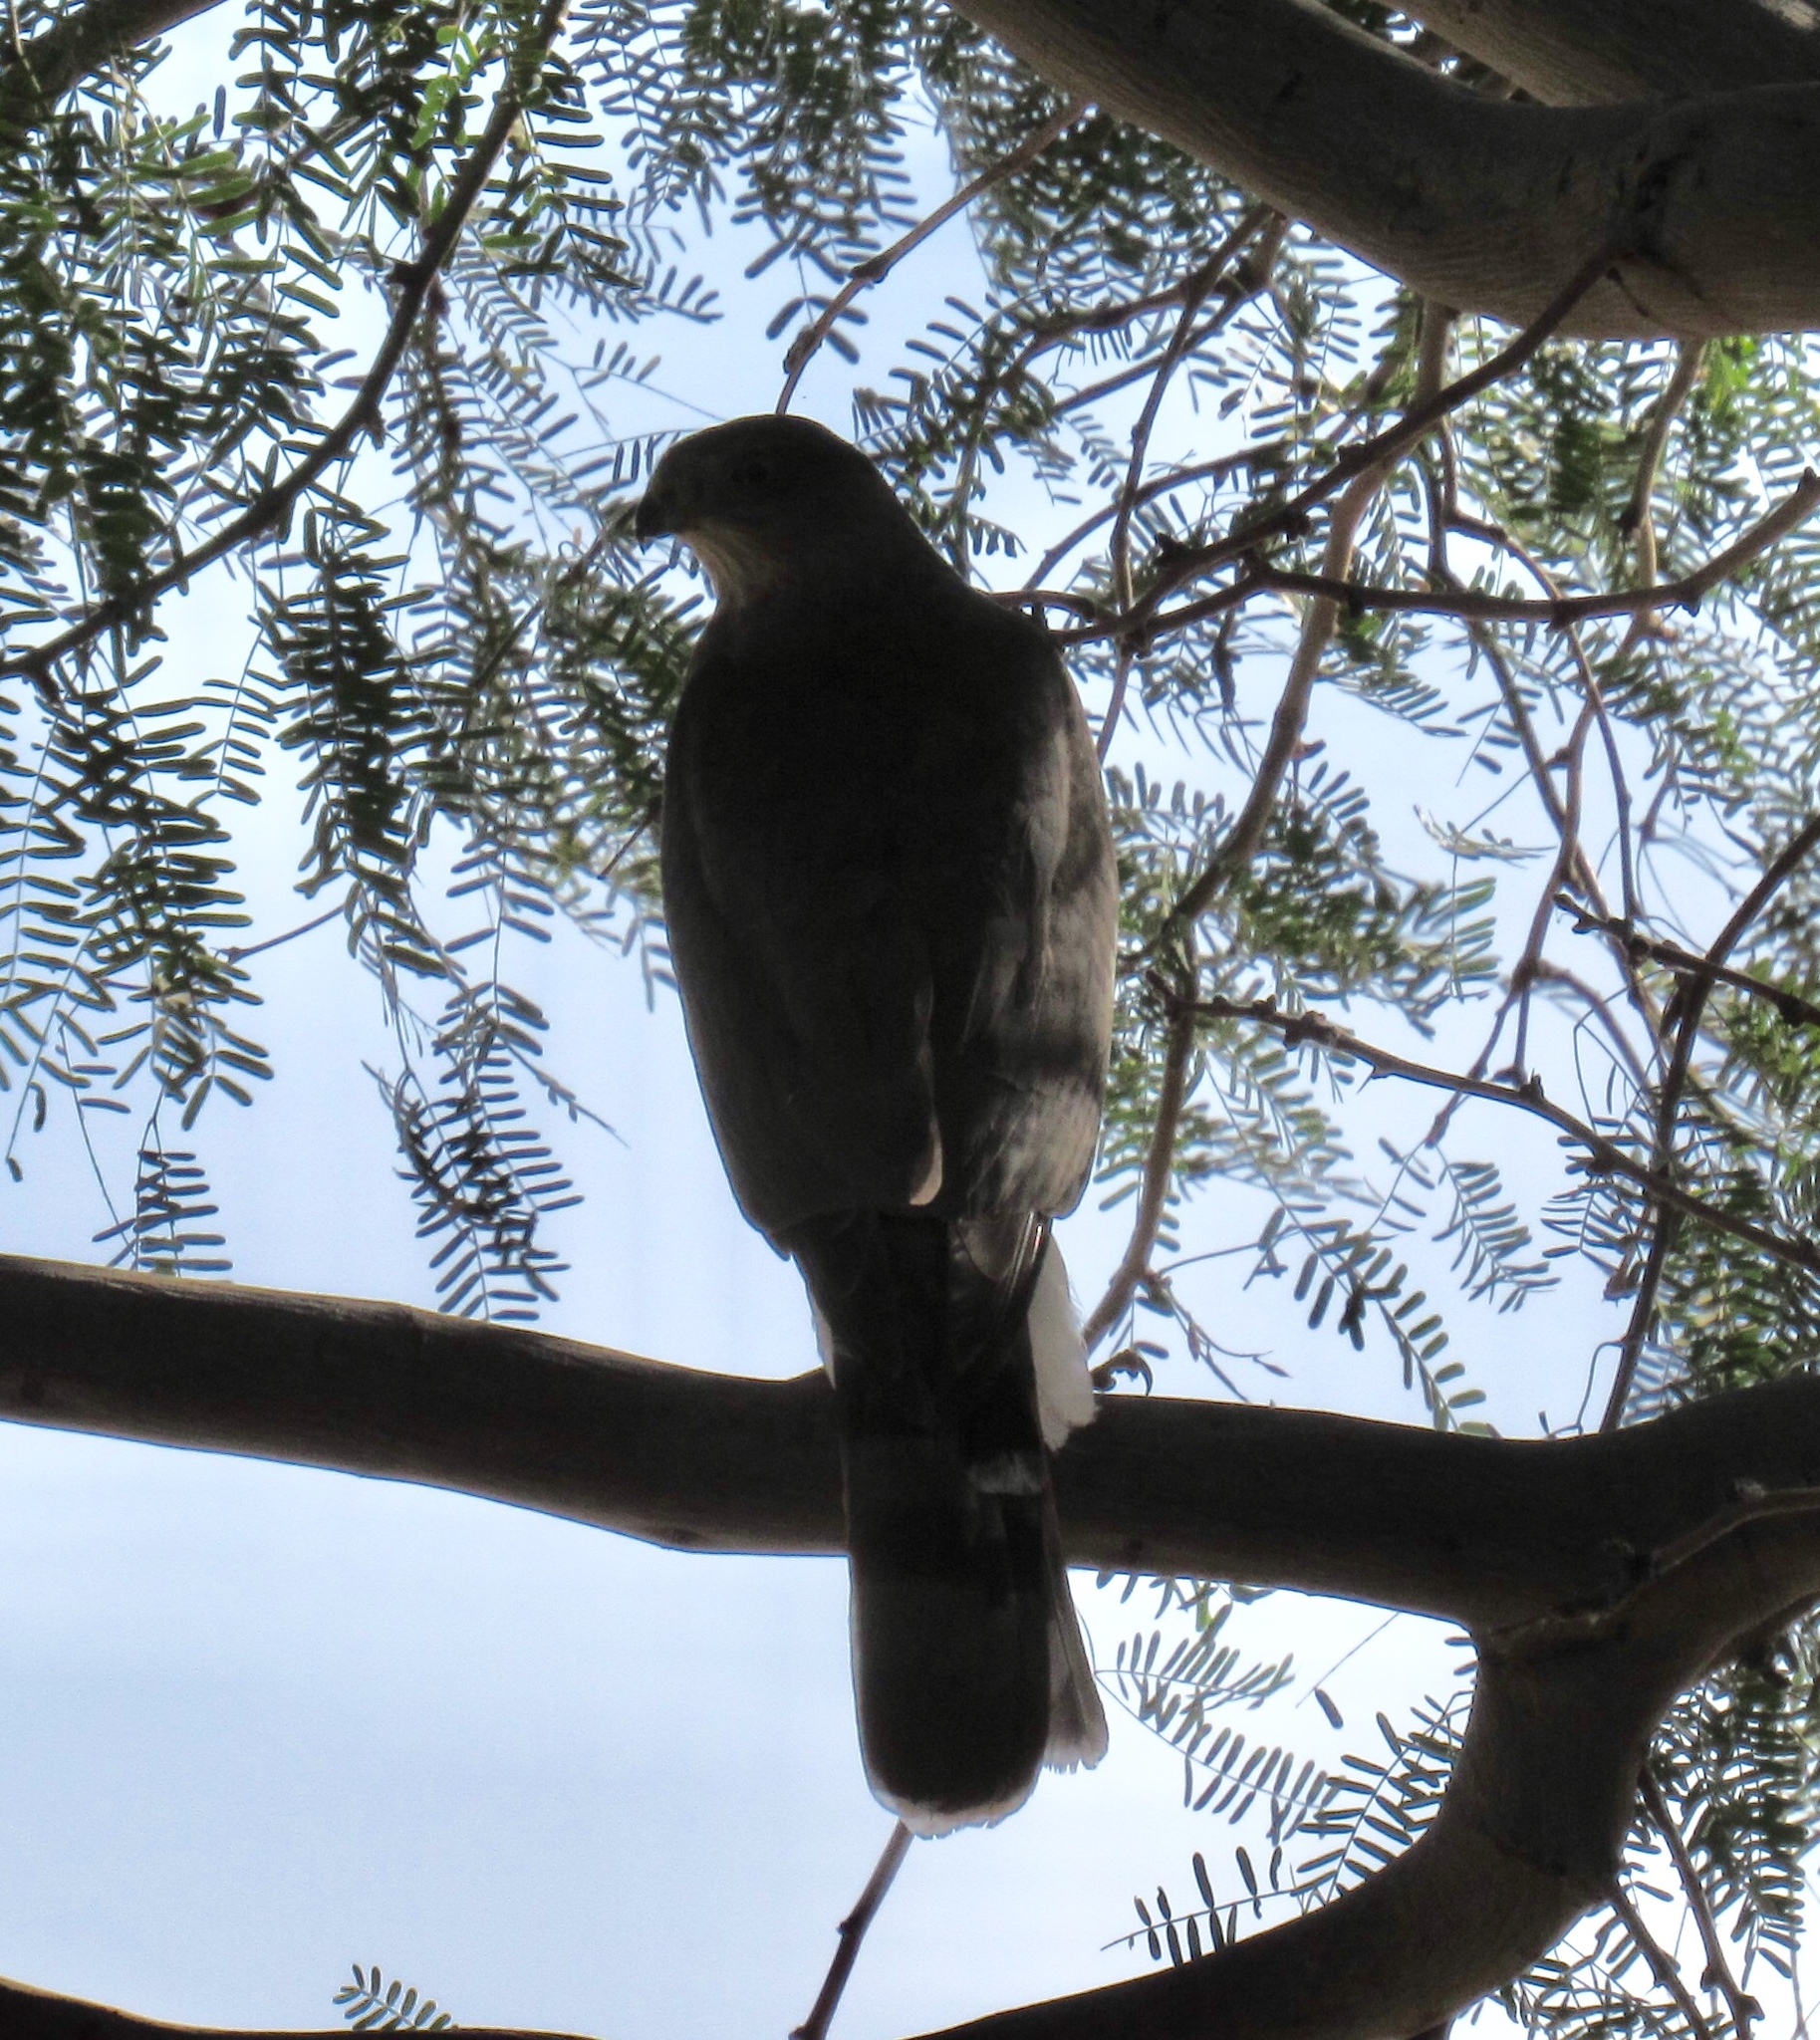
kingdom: Animalia
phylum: Chordata
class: Aves
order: Accipitriformes
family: Accipitridae
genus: Accipiter
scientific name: Accipiter cooperii
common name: Cooper's hawk
